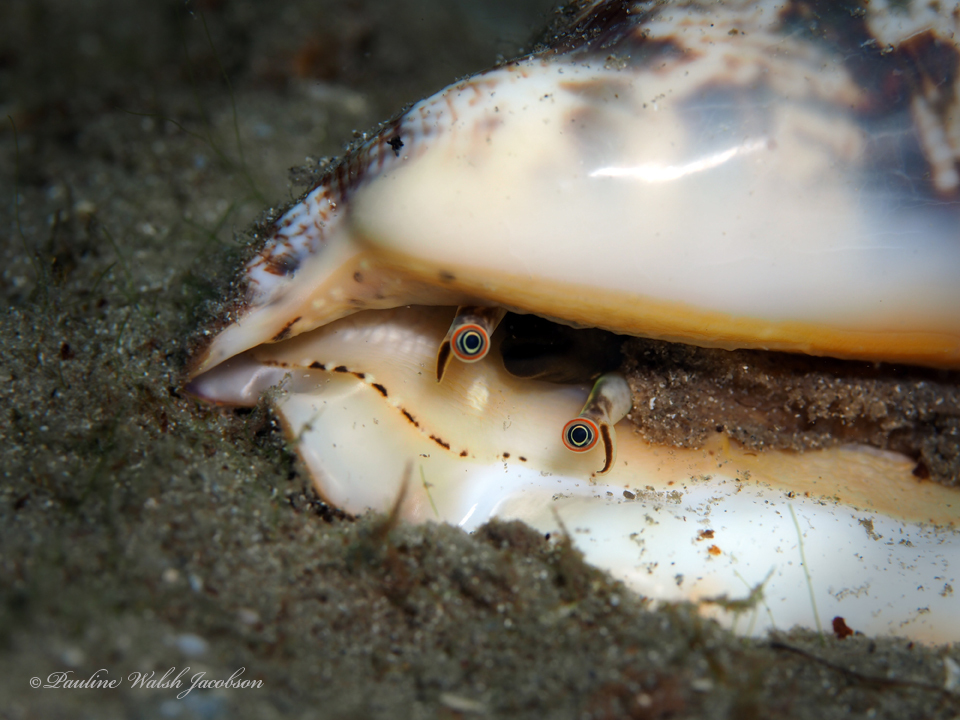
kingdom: Animalia
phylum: Mollusca
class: Gastropoda
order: Littorinimorpha
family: Strombidae
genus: Lobatus
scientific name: Lobatus raninus
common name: Hawk-wing conch
